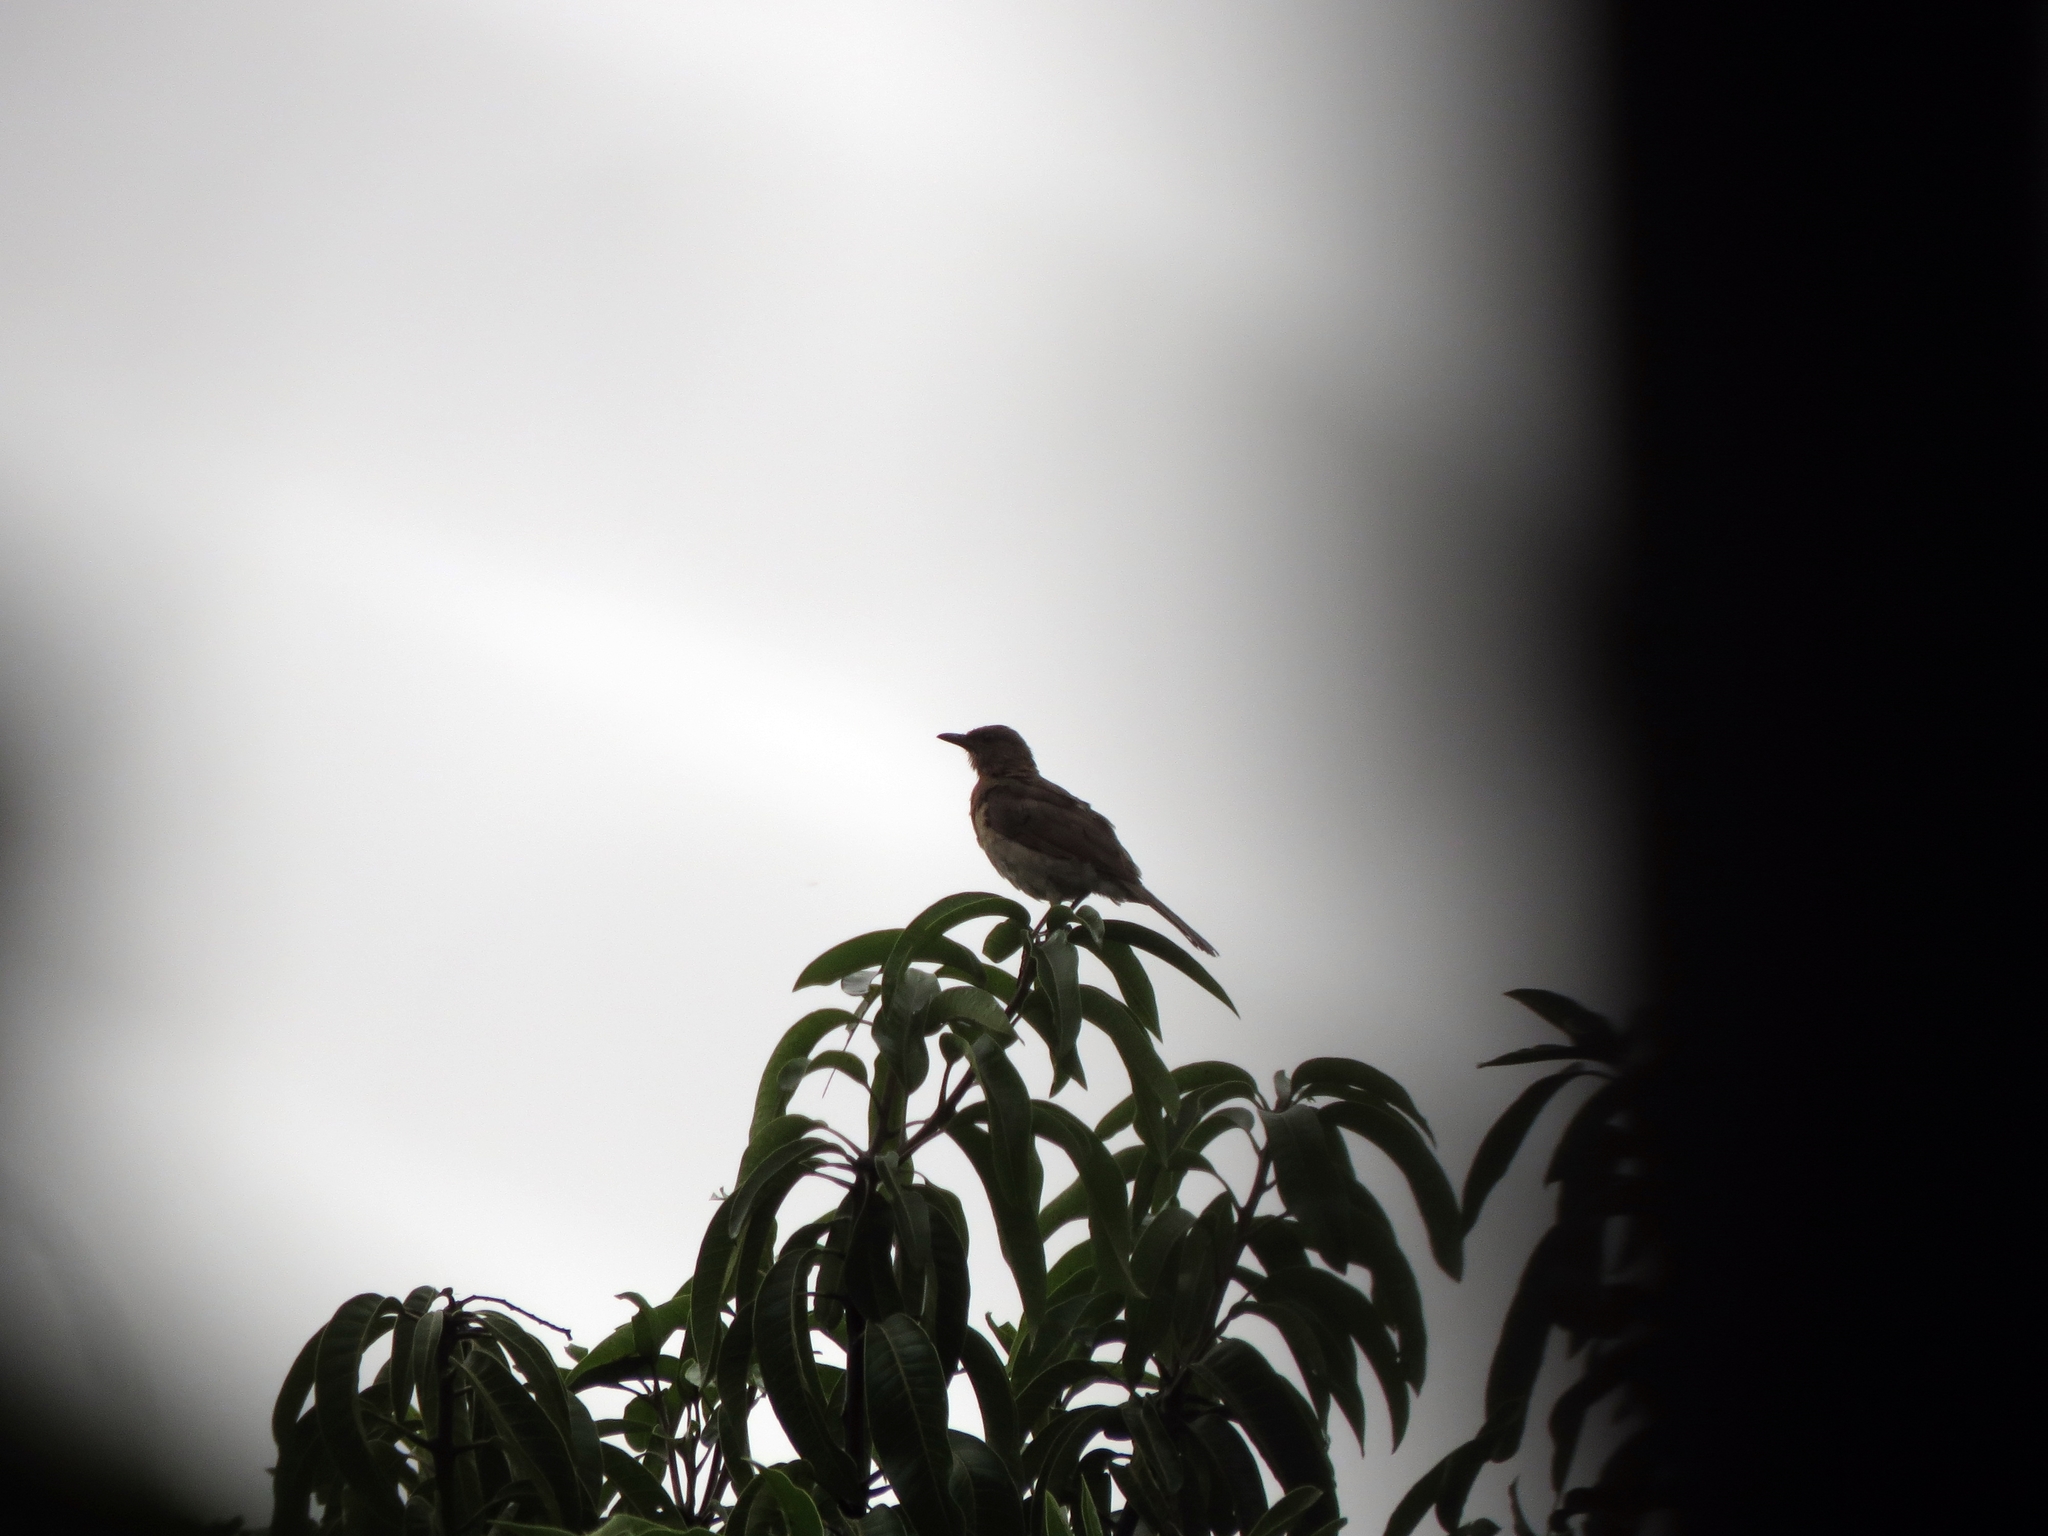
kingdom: Animalia
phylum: Chordata
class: Aves
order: Passeriformes
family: Turdidae
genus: Turdus
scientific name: Turdus ignobilis
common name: Black-billed thrush
